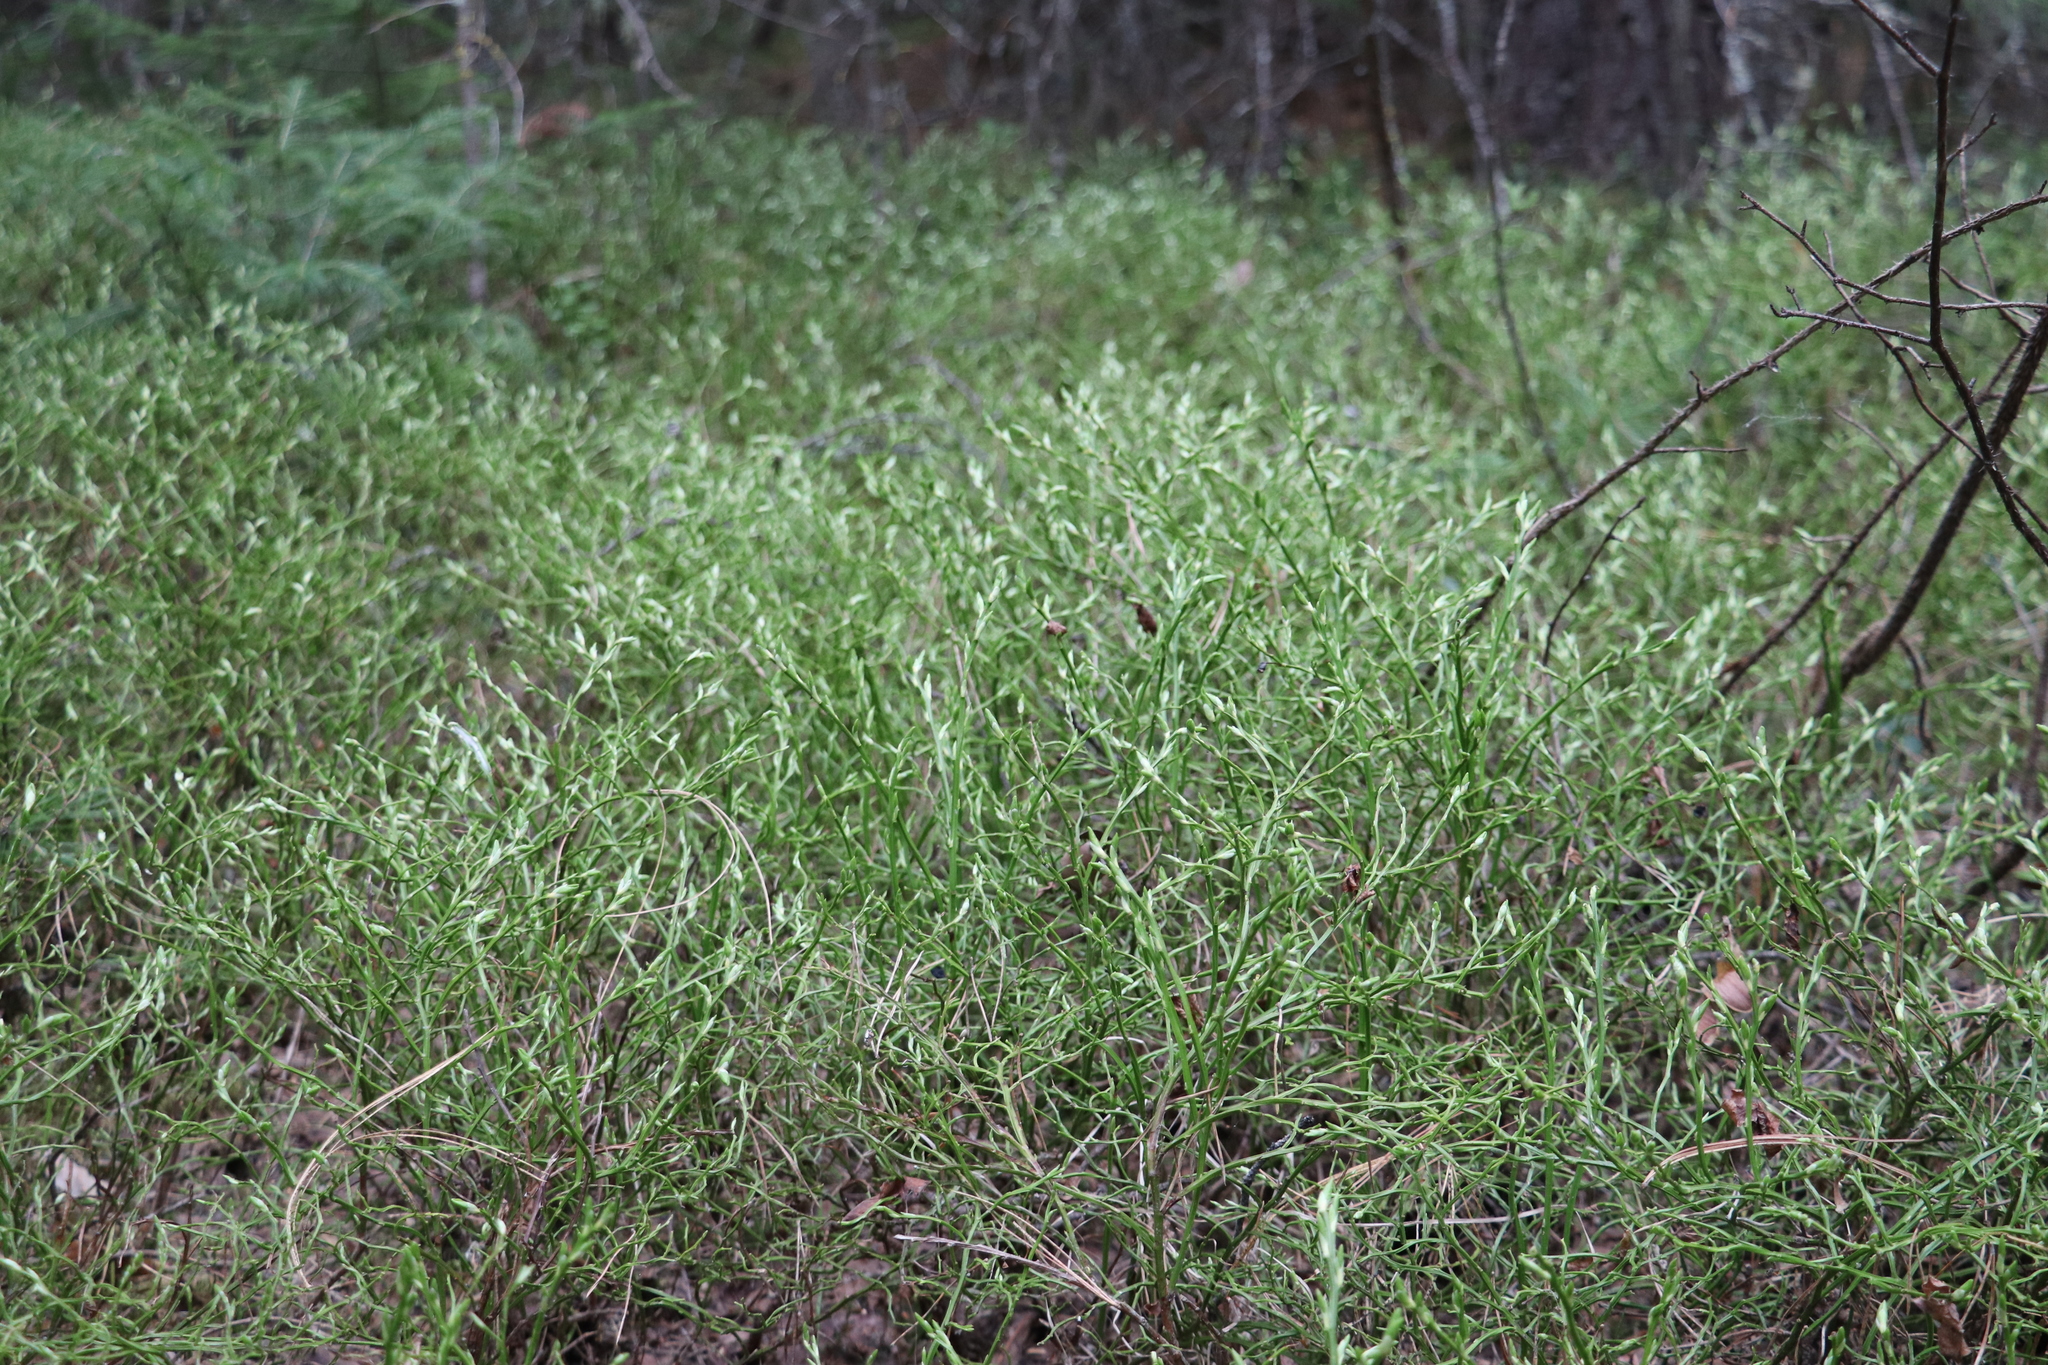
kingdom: Plantae
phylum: Tracheophyta
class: Magnoliopsida
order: Ericales
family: Ericaceae
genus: Vaccinium
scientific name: Vaccinium myrtillus
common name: Bilberry
